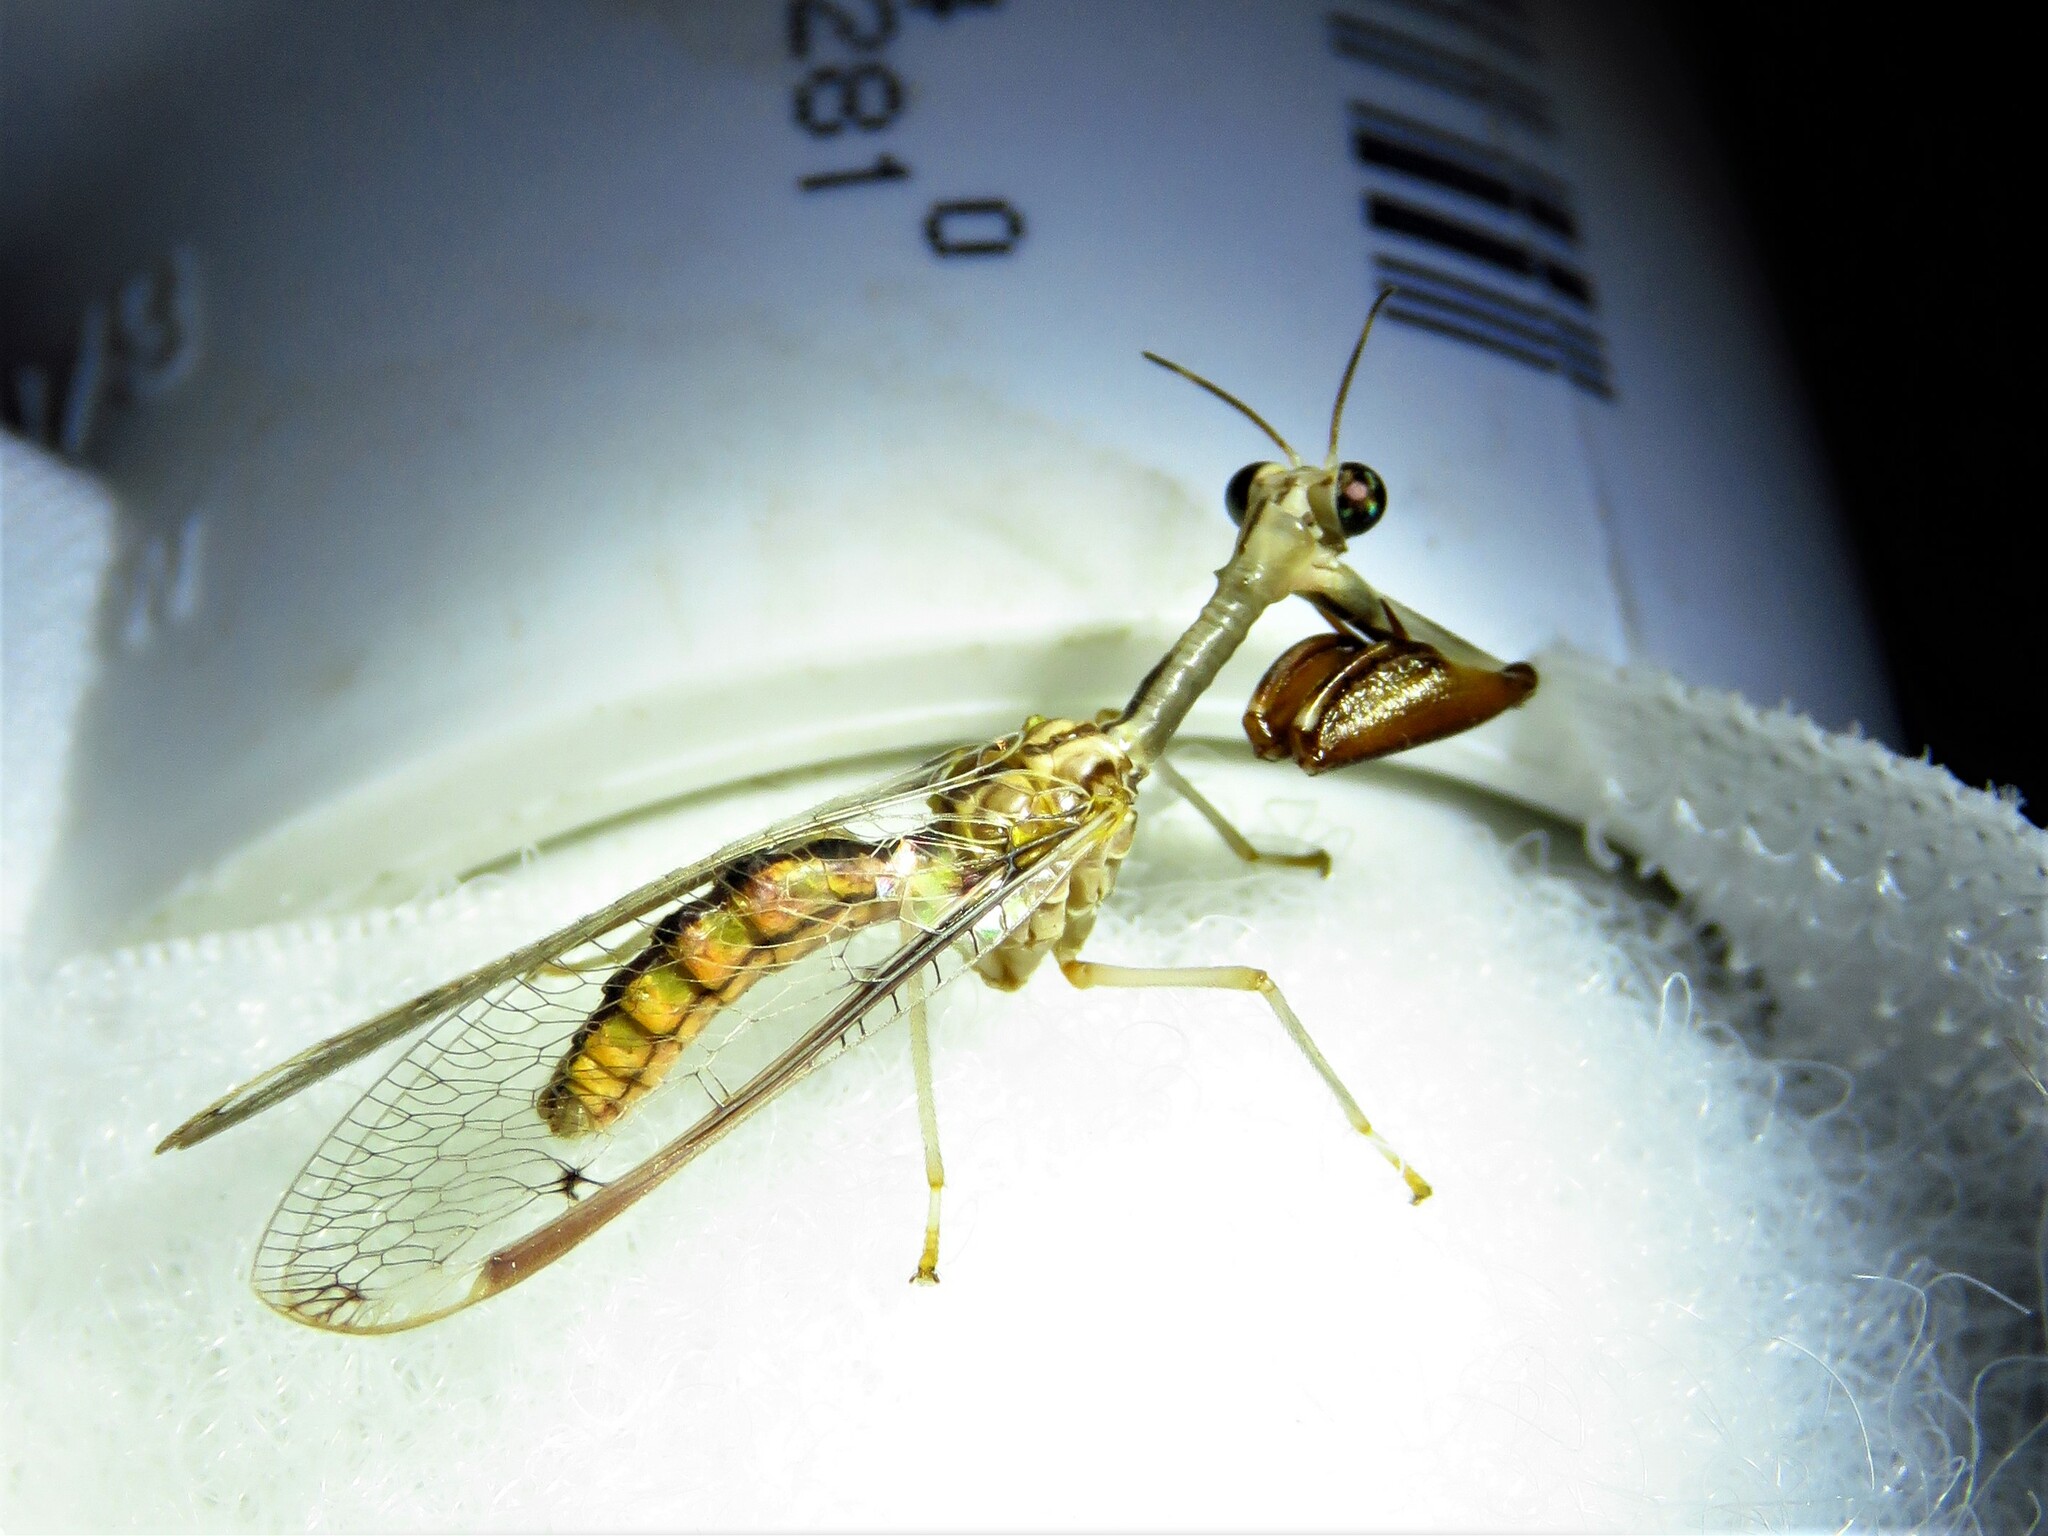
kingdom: Animalia
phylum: Arthropoda
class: Insecta
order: Neuroptera
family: Mantispidae
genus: Dicromantispa
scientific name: Dicromantispa interrupta
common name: Four-spotted mantidfly
